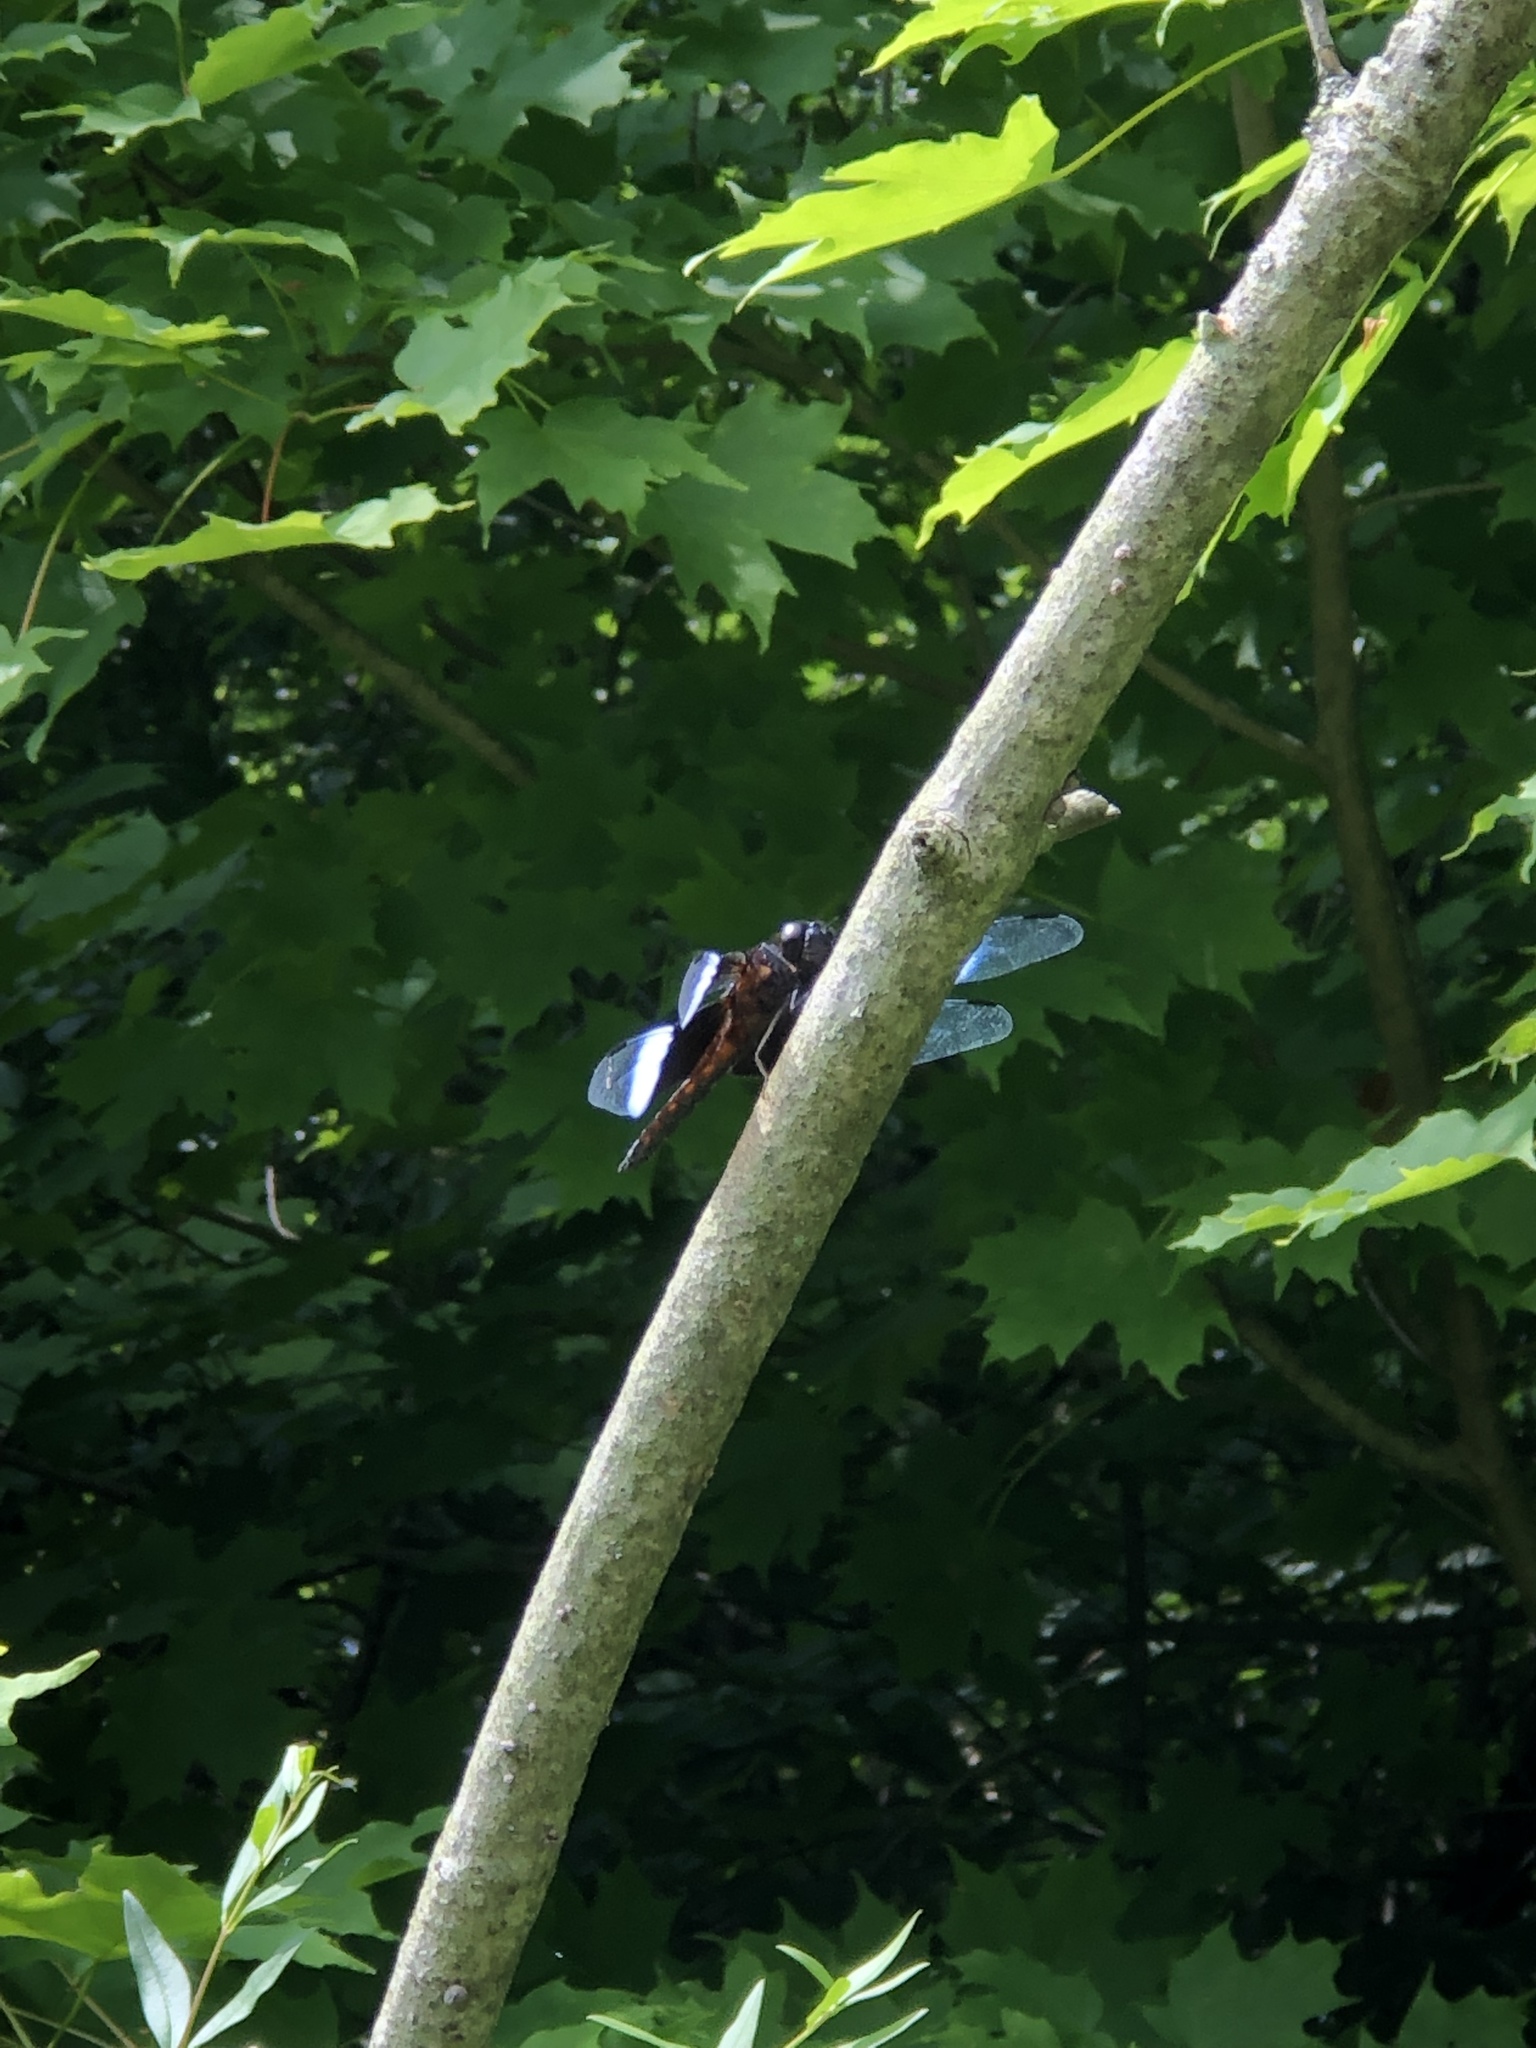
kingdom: Animalia
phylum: Arthropoda
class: Insecta
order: Odonata
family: Libellulidae
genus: Libellula
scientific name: Libellula luctuosa
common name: Widow skimmer
